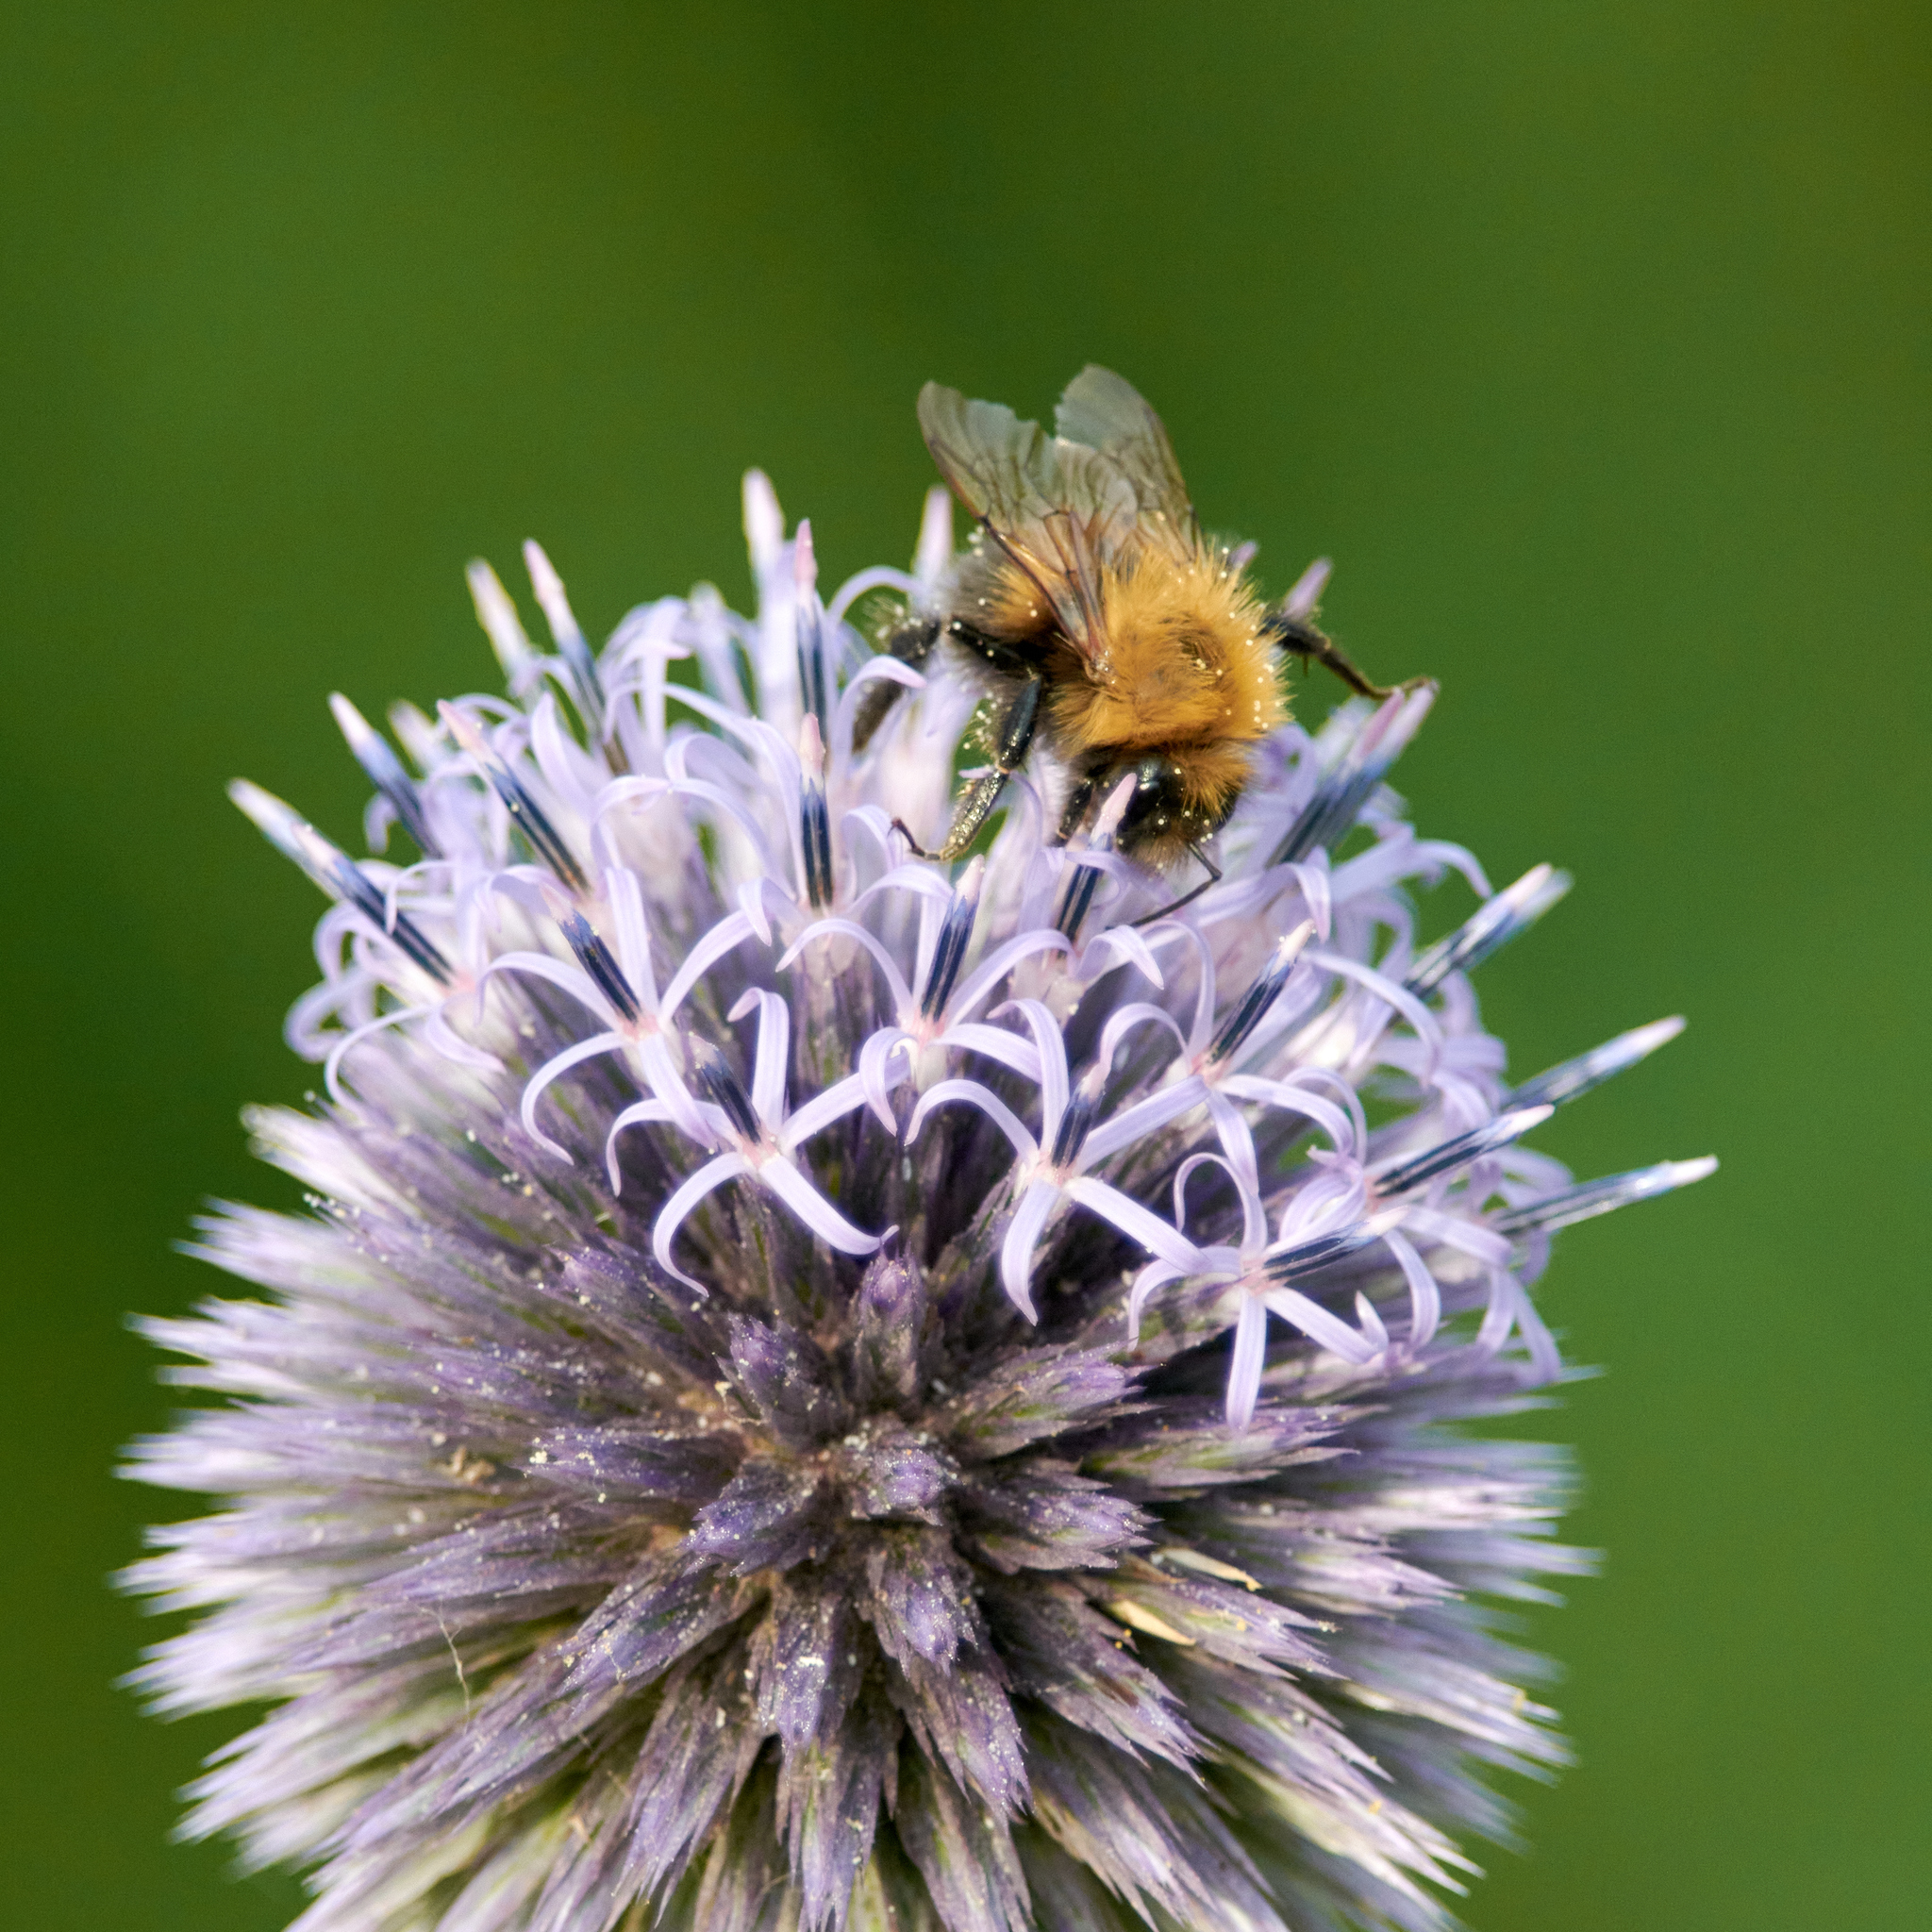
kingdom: Animalia
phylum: Arthropoda
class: Insecta
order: Hymenoptera
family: Apidae
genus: Bombus
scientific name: Bombus hypnorum
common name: New garden bumblebee
